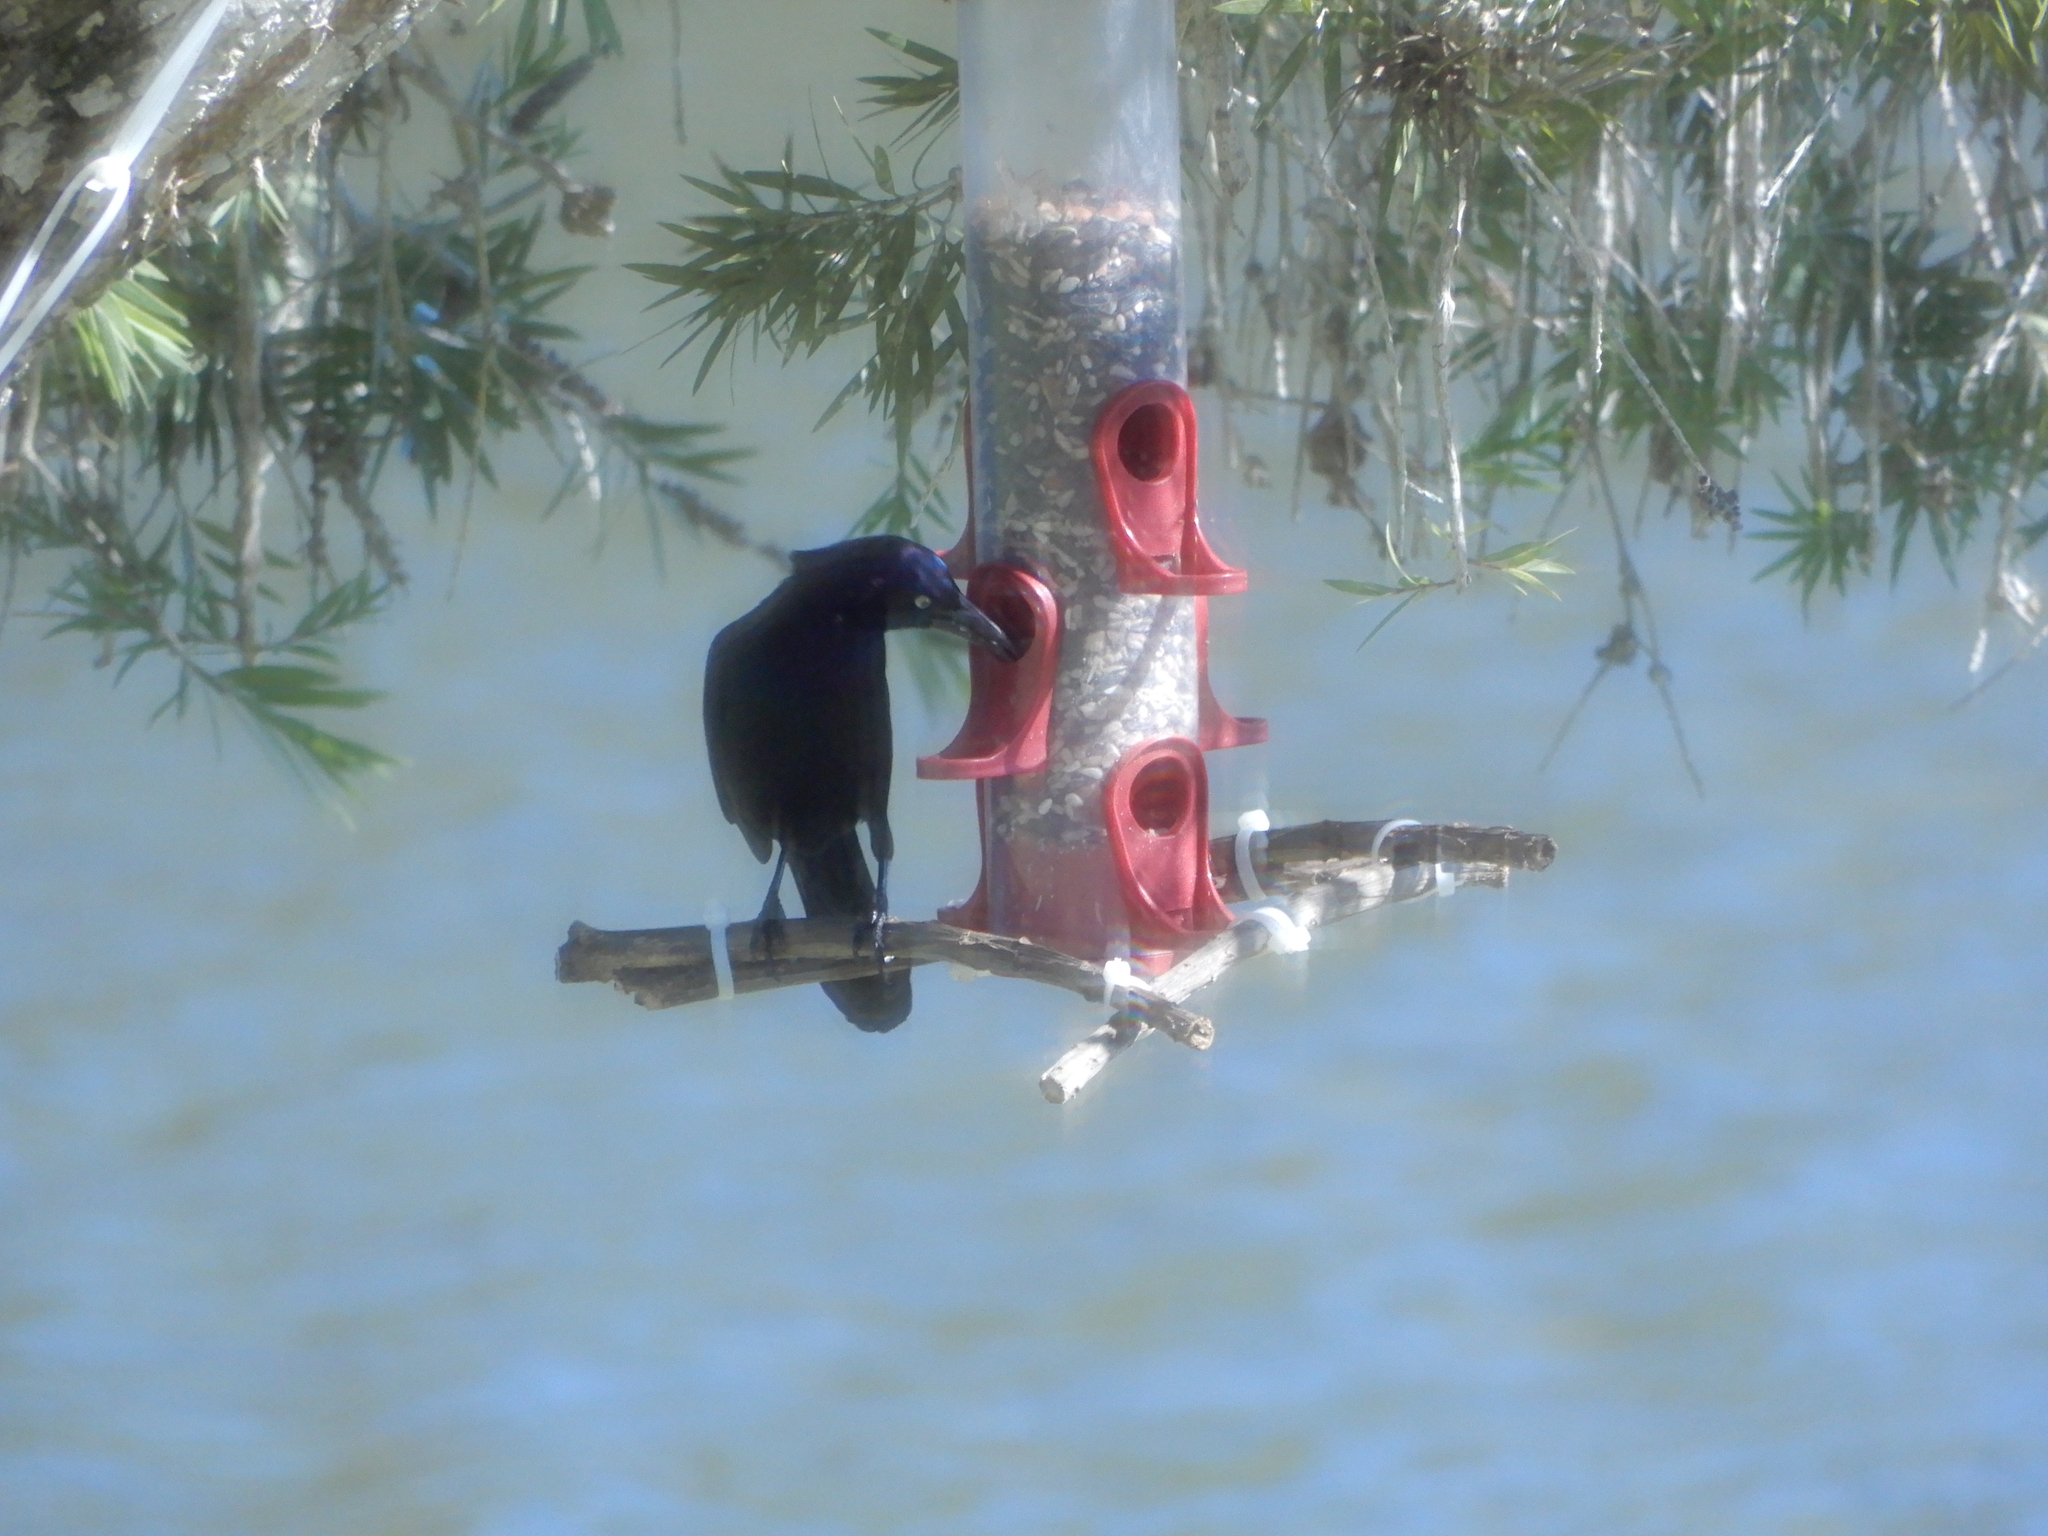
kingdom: Animalia
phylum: Chordata
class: Aves
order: Passeriformes
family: Icteridae
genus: Quiscalus
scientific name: Quiscalus quiscula
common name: Common grackle
